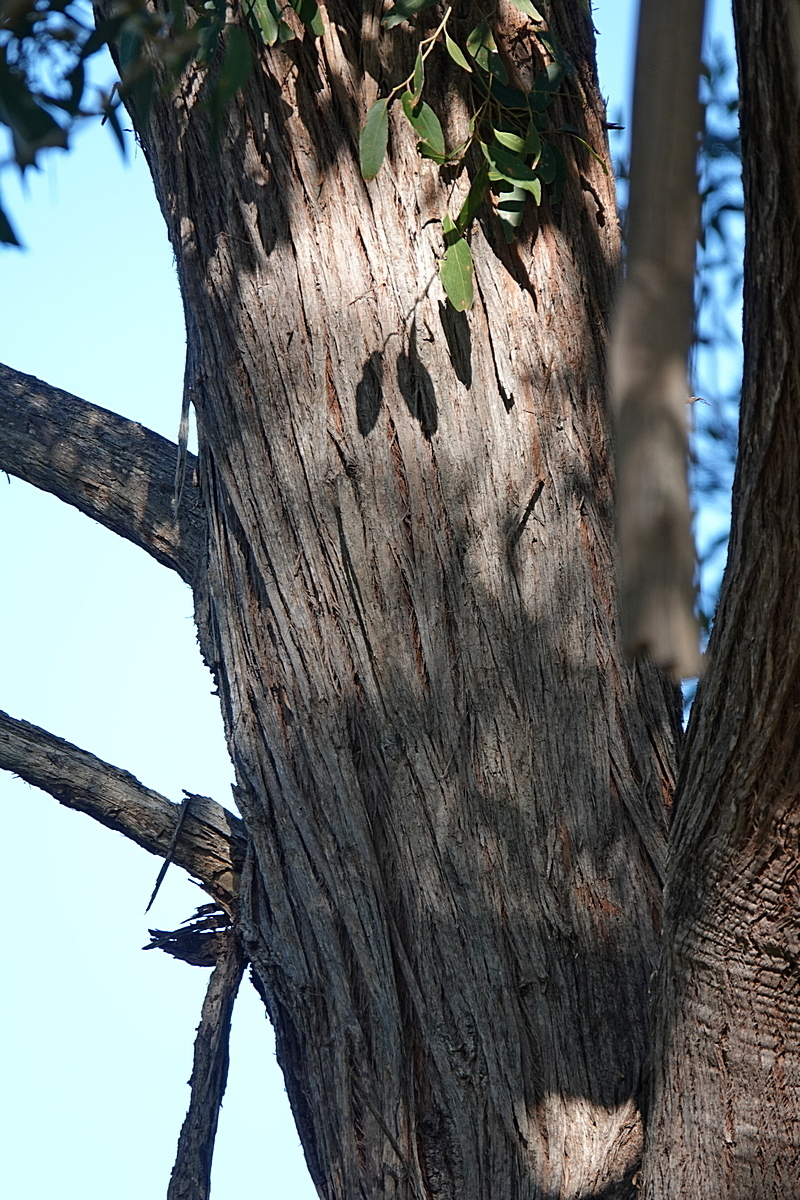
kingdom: Plantae
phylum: Tracheophyta
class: Magnoliopsida
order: Myrtales
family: Myrtaceae
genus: Eucalyptus
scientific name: Eucalyptus globoidea
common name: White-stringybark
